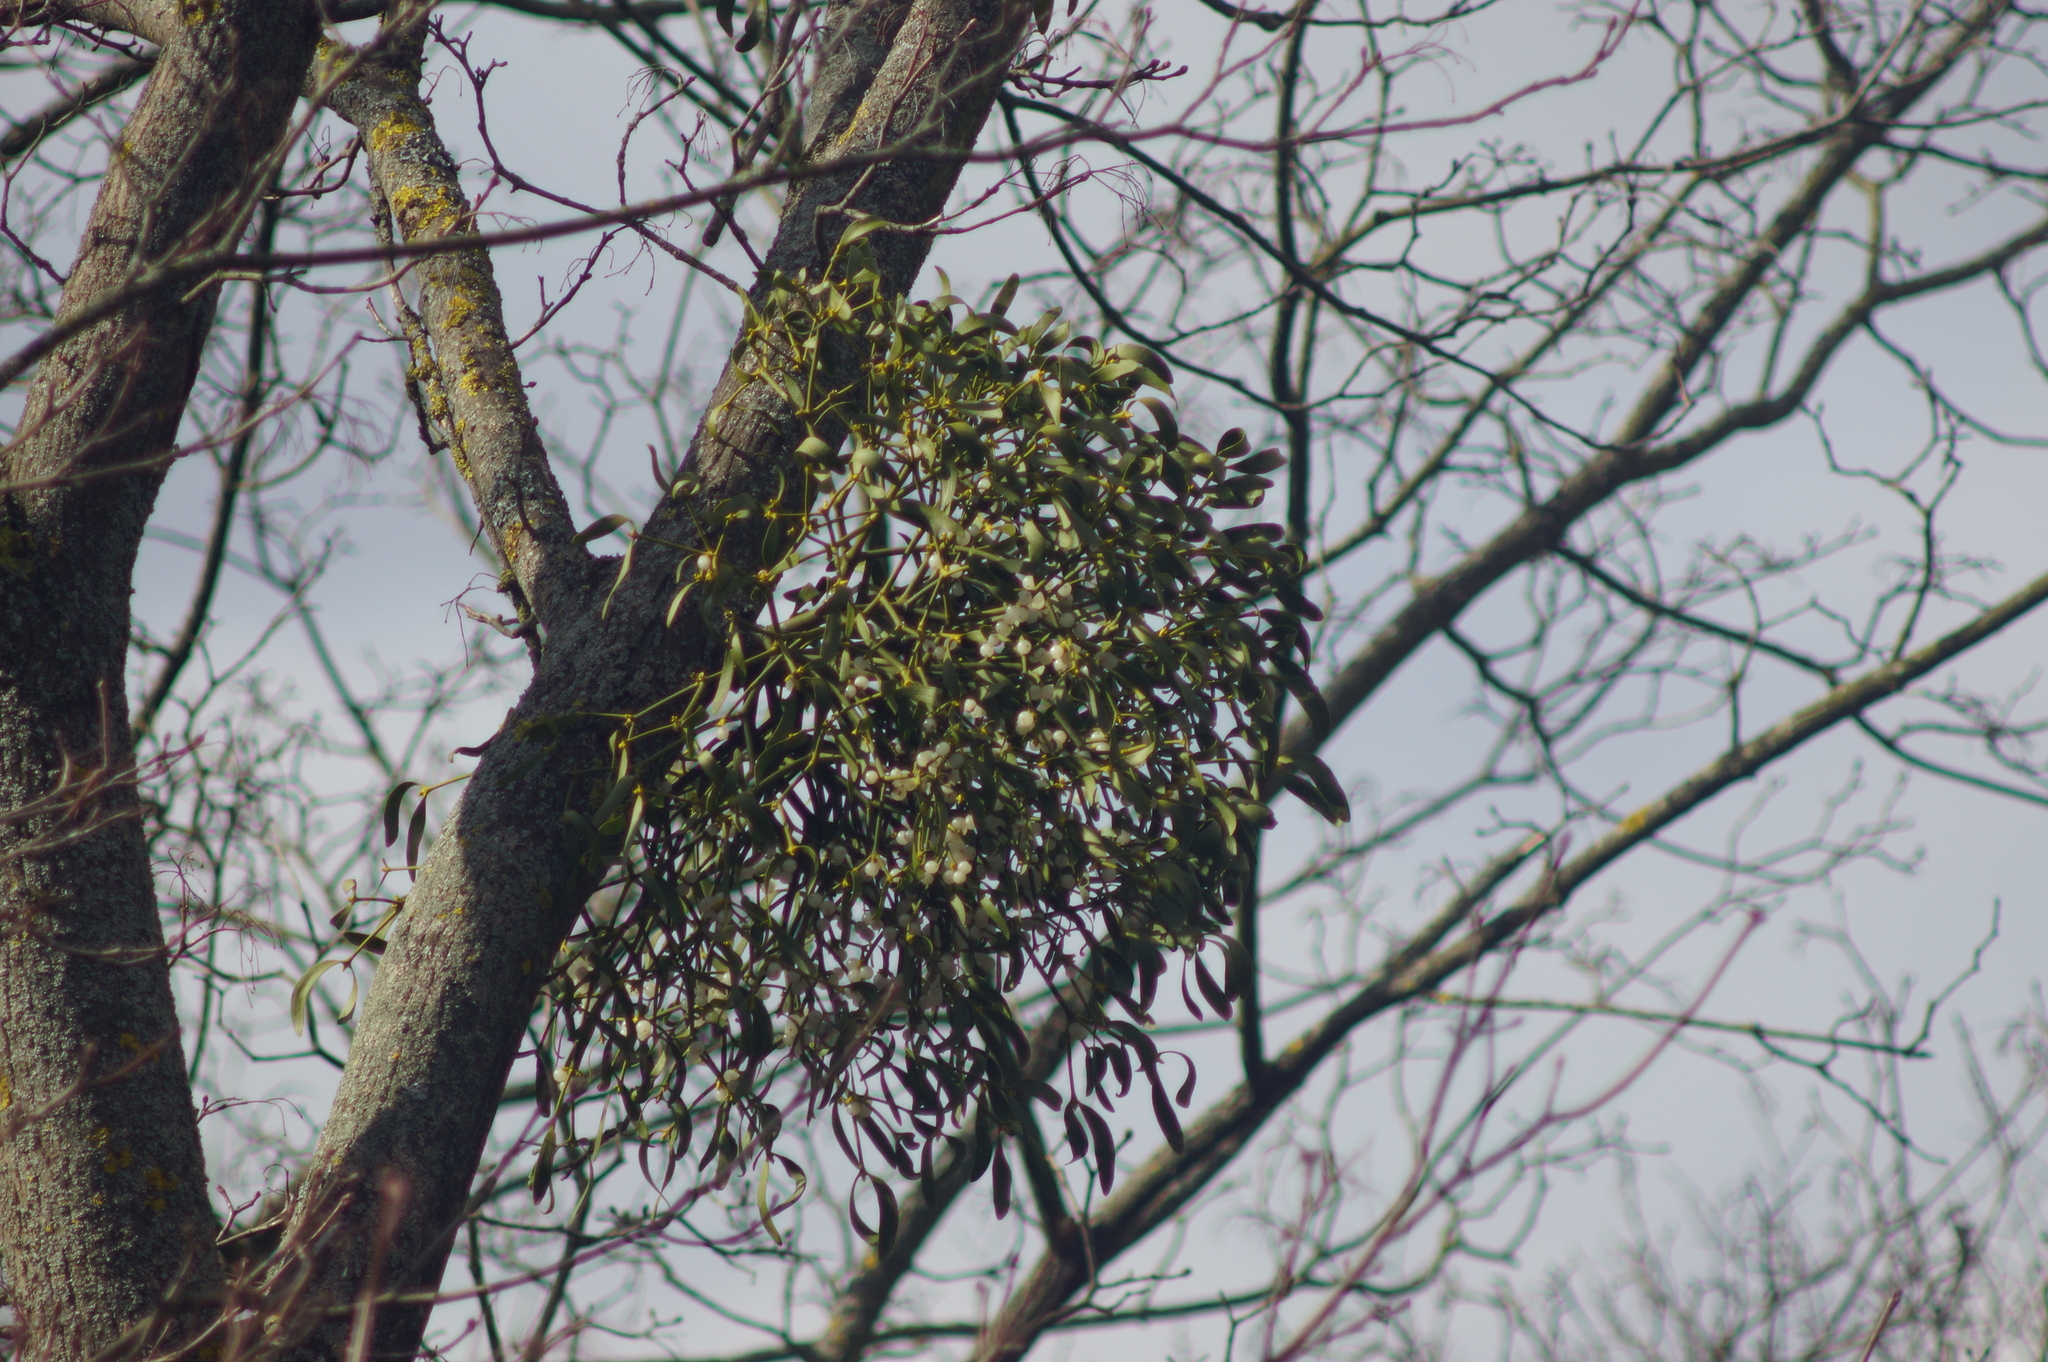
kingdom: Plantae
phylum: Tracheophyta
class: Magnoliopsida
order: Santalales
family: Viscaceae
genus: Viscum
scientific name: Viscum album
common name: Mistletoe
